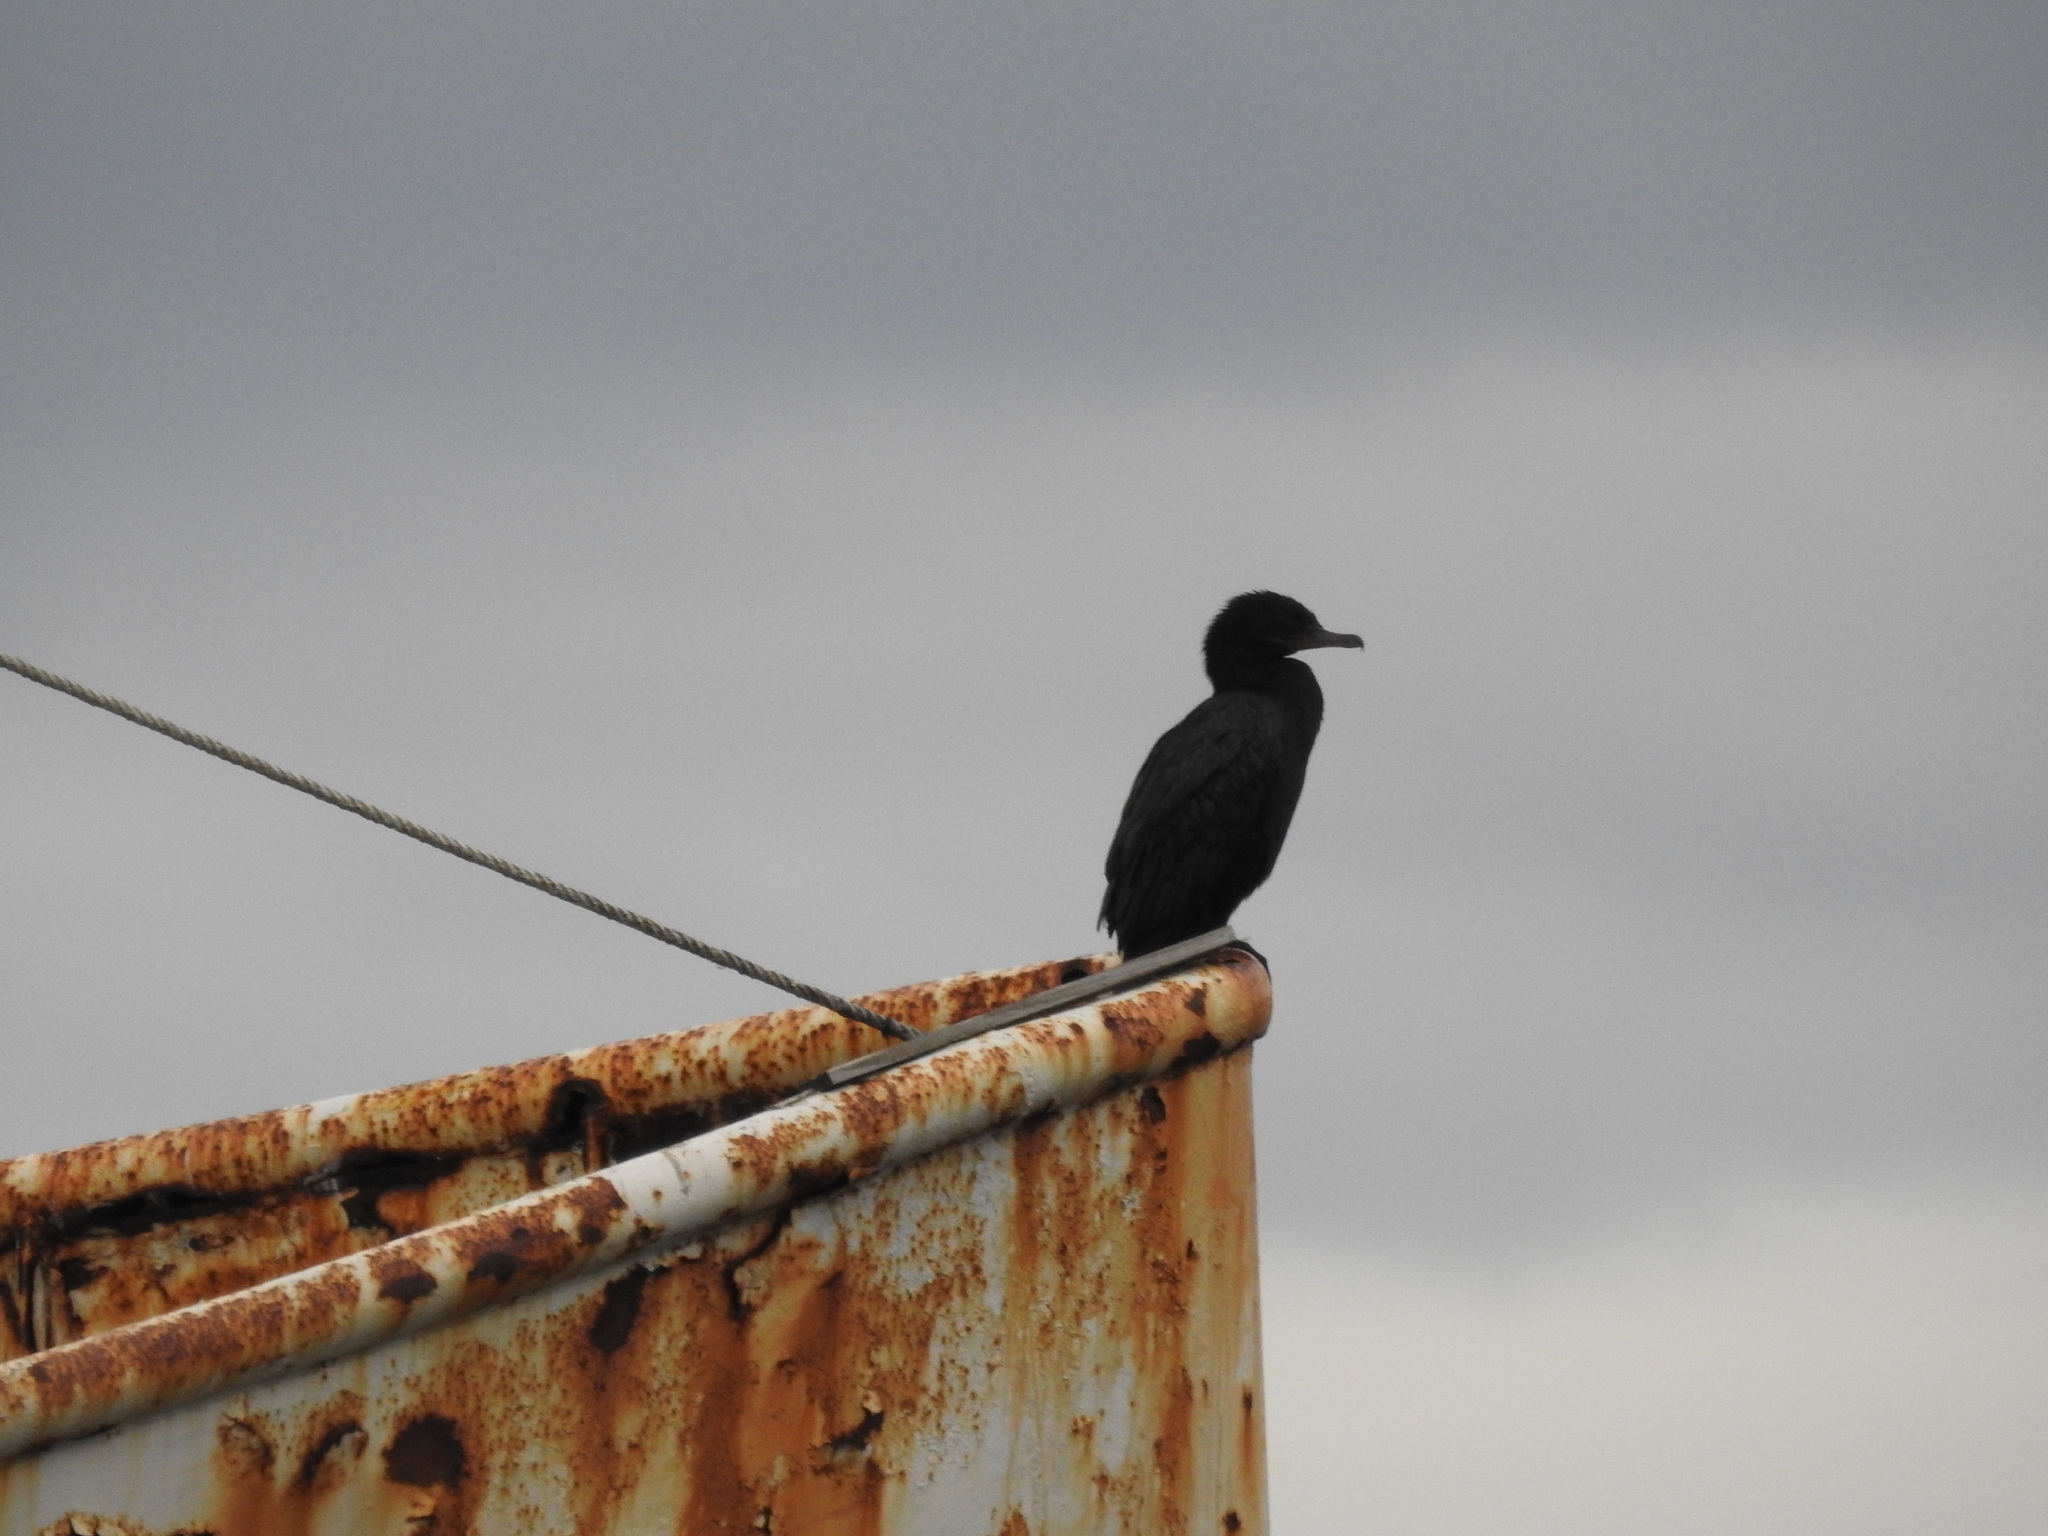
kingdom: Animalia
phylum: Chordata
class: Aves
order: Suliformes
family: Phalacrocoracidae
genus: Phalacrocorax
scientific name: Phalacrocorax brasilianus
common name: Neotropic cormorant
